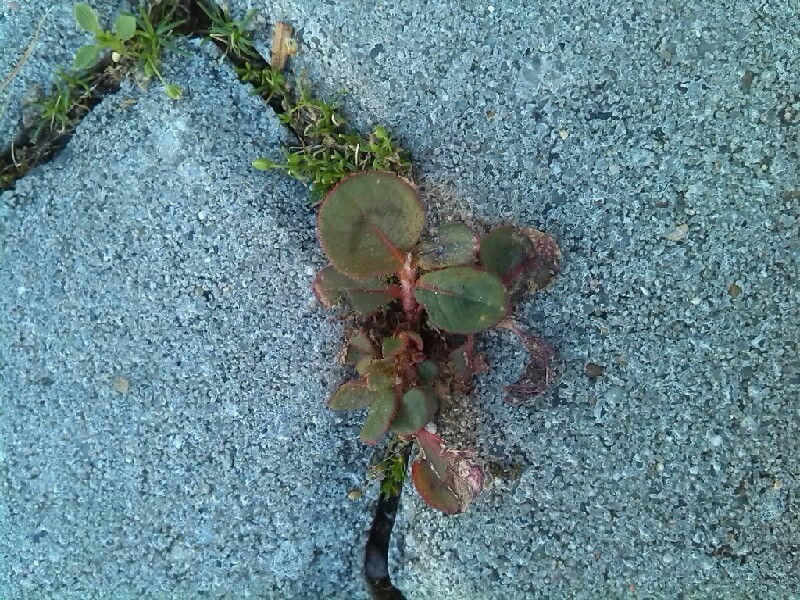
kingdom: Plantae
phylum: Tracheophyta
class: Magnoliopsida
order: Caryophyllales
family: Polygonaceae
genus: Persicaria
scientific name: Persicaria capitata
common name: Pinkhead smartweed
